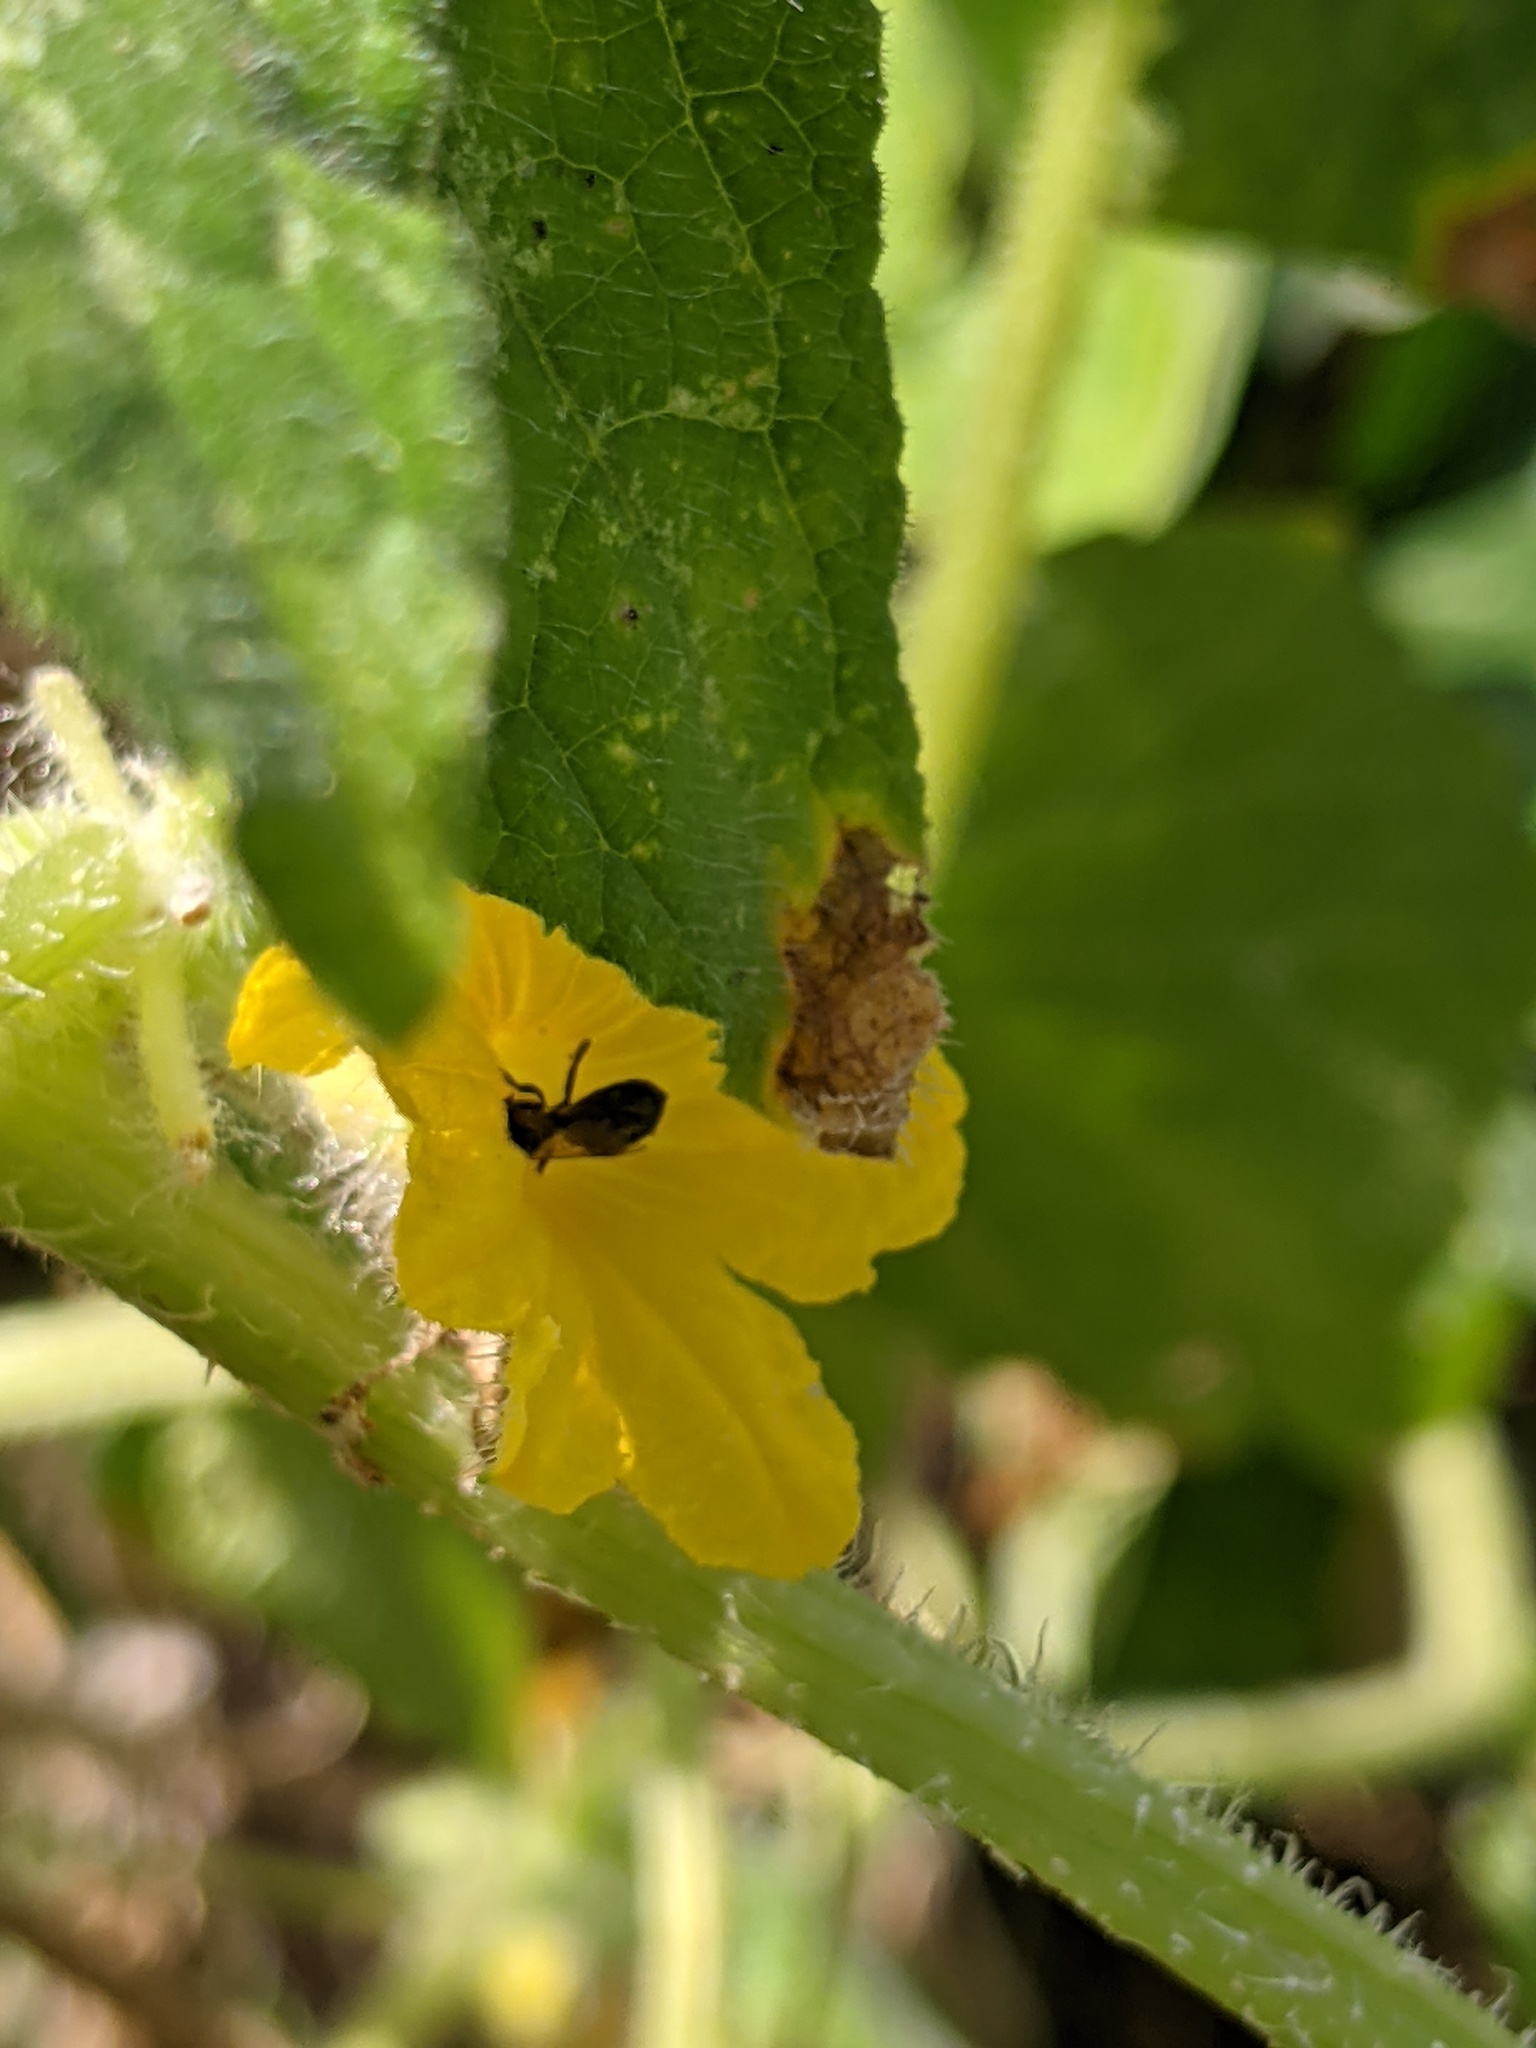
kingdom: Animalia
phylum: Arthropoda
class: Insecta
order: Hymenoptera
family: Apidae
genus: Zadontomerus
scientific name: Zadontomerus
